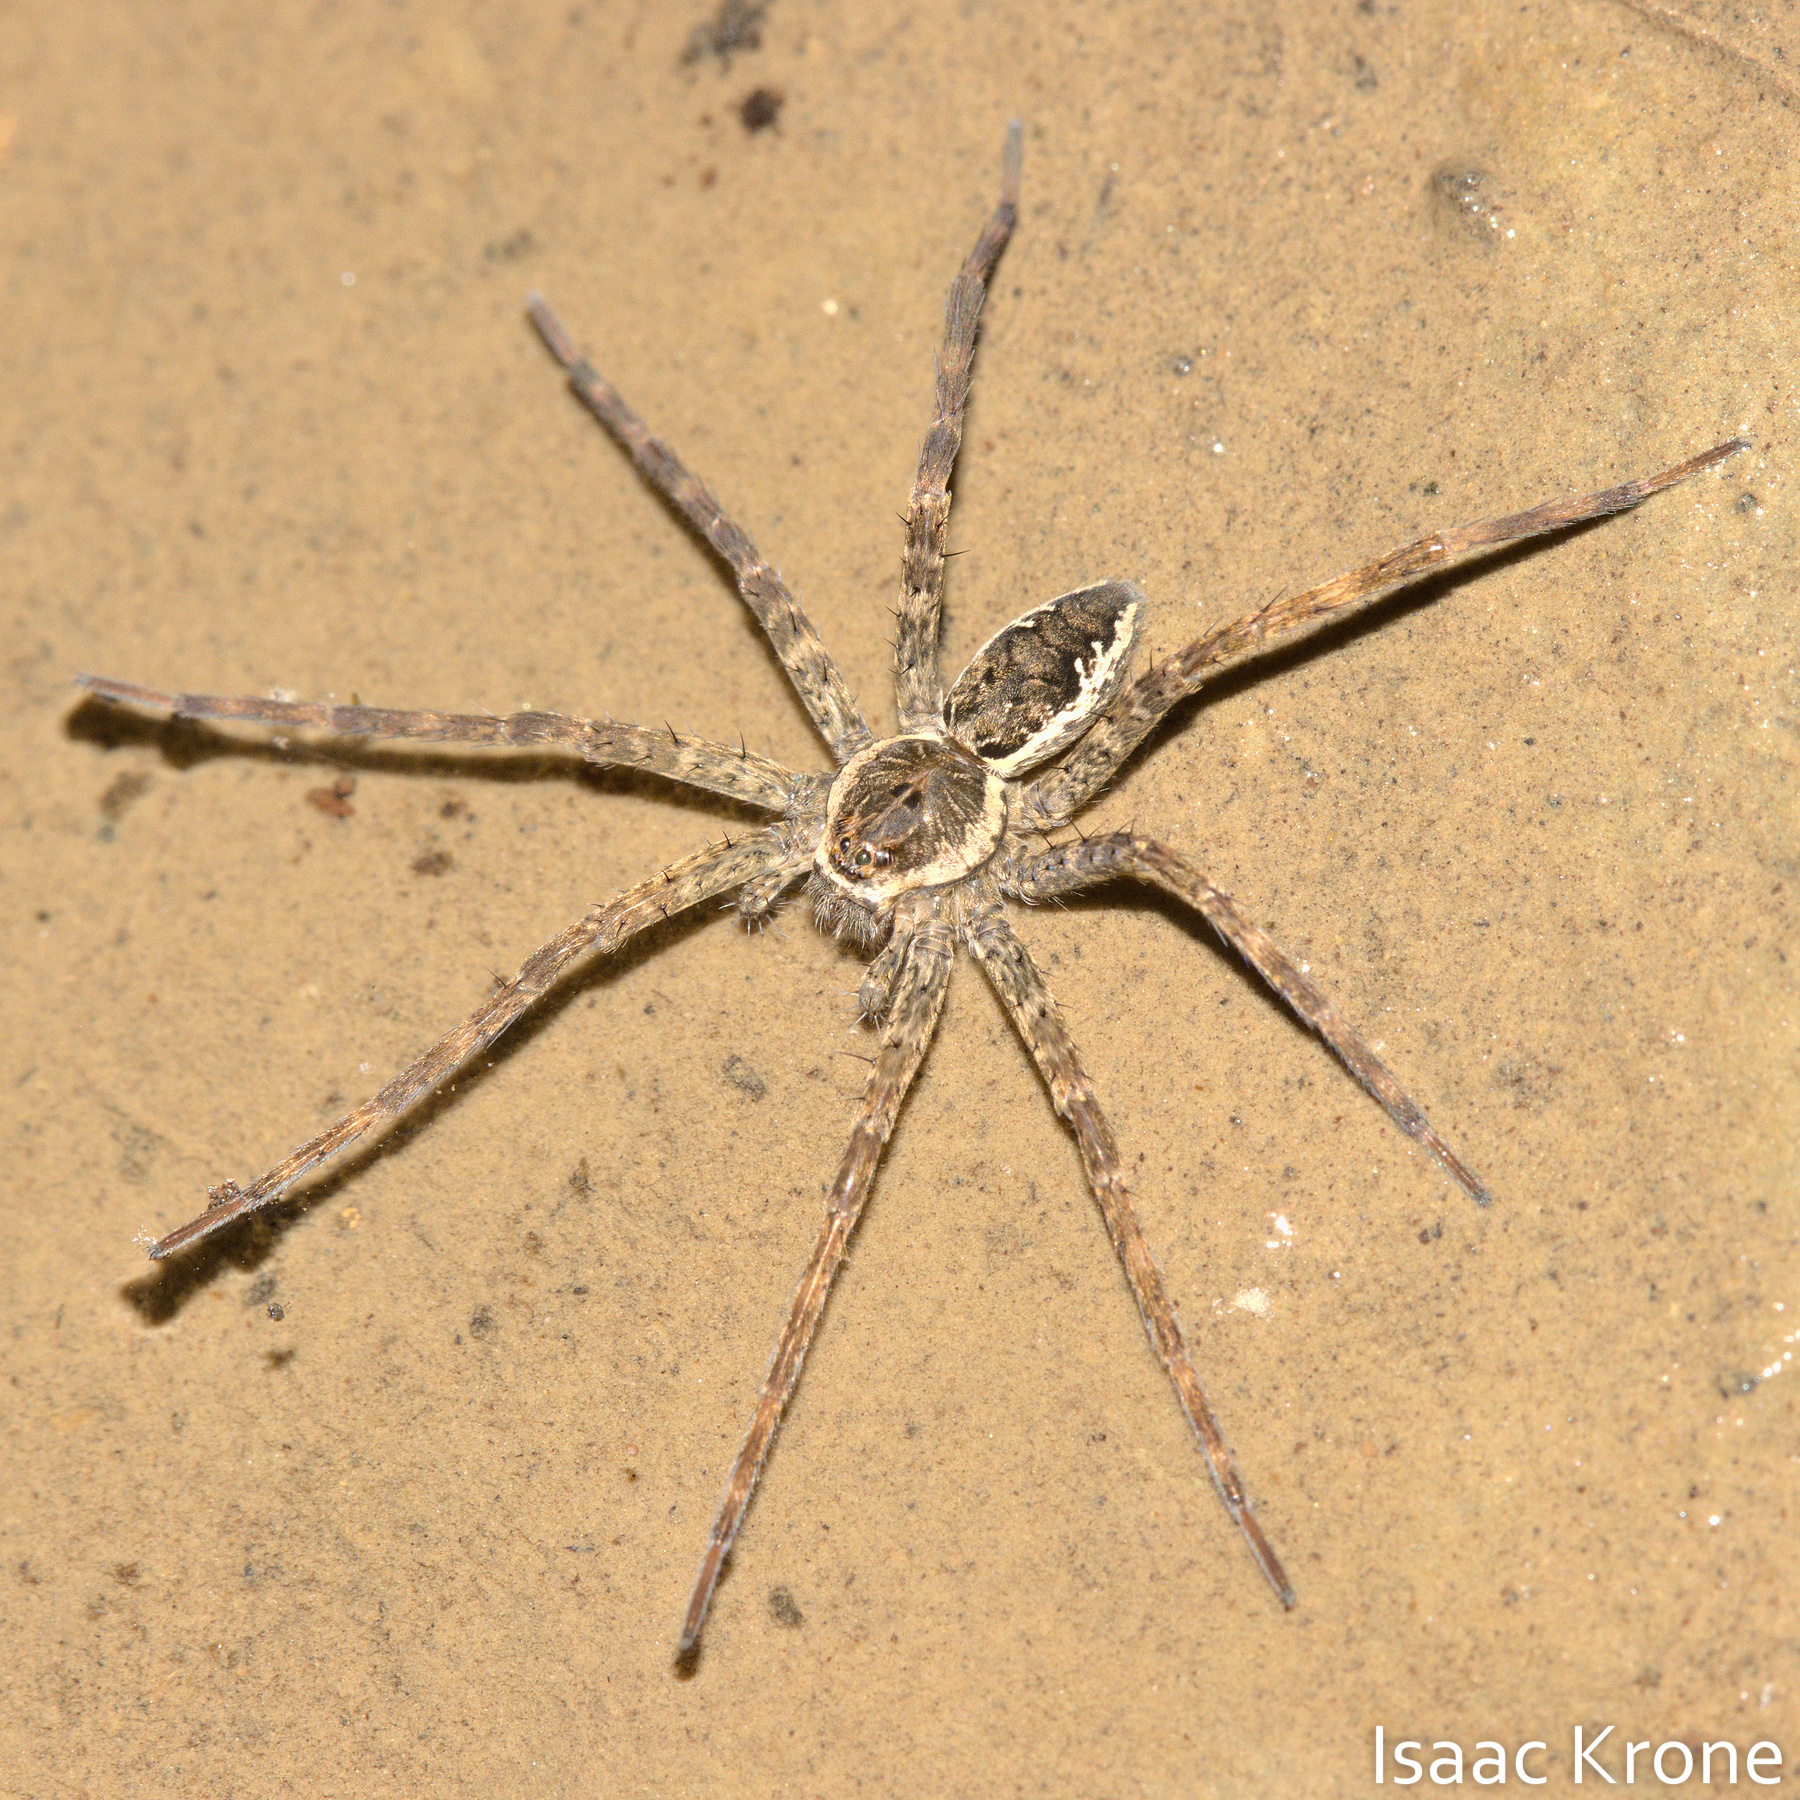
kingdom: Animalia
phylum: Arthropoda
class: Arachnida
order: Araneae
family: Pisauridae
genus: Dolomedes
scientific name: Dolomedes vittatus
